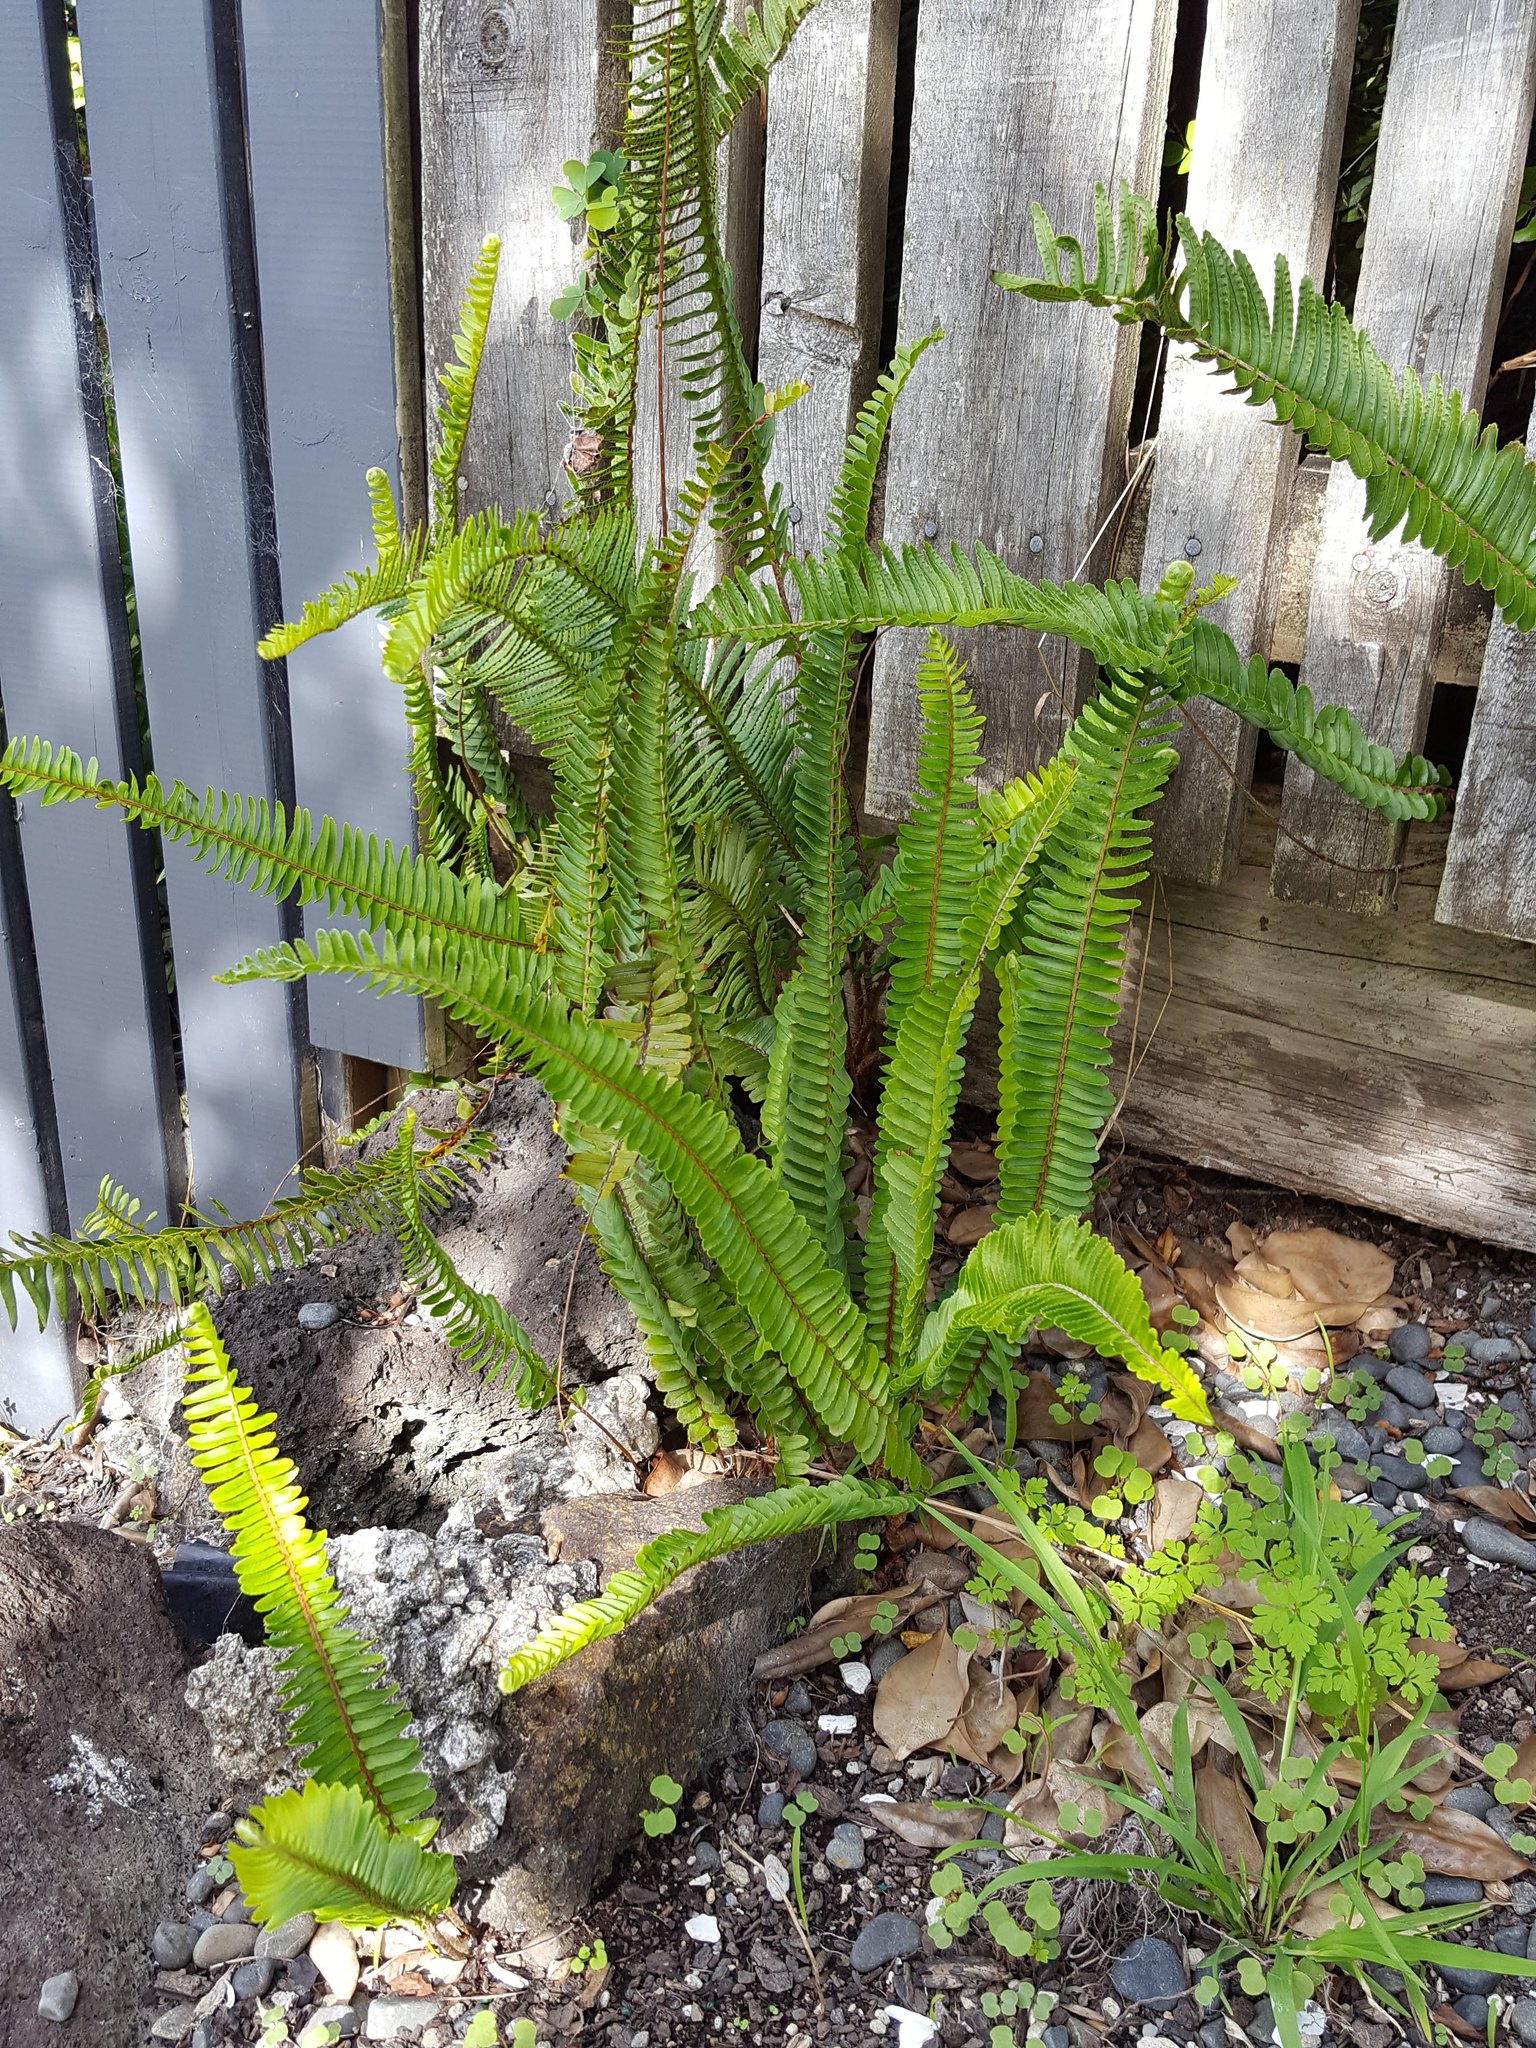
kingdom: Plantae
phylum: Tracheophyta
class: Polypodiopsida
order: Polypodiales
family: Nephrolepidaceae
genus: Nephrolepis
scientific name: Nephrolepis cordifolia
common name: Narrow swordfern
